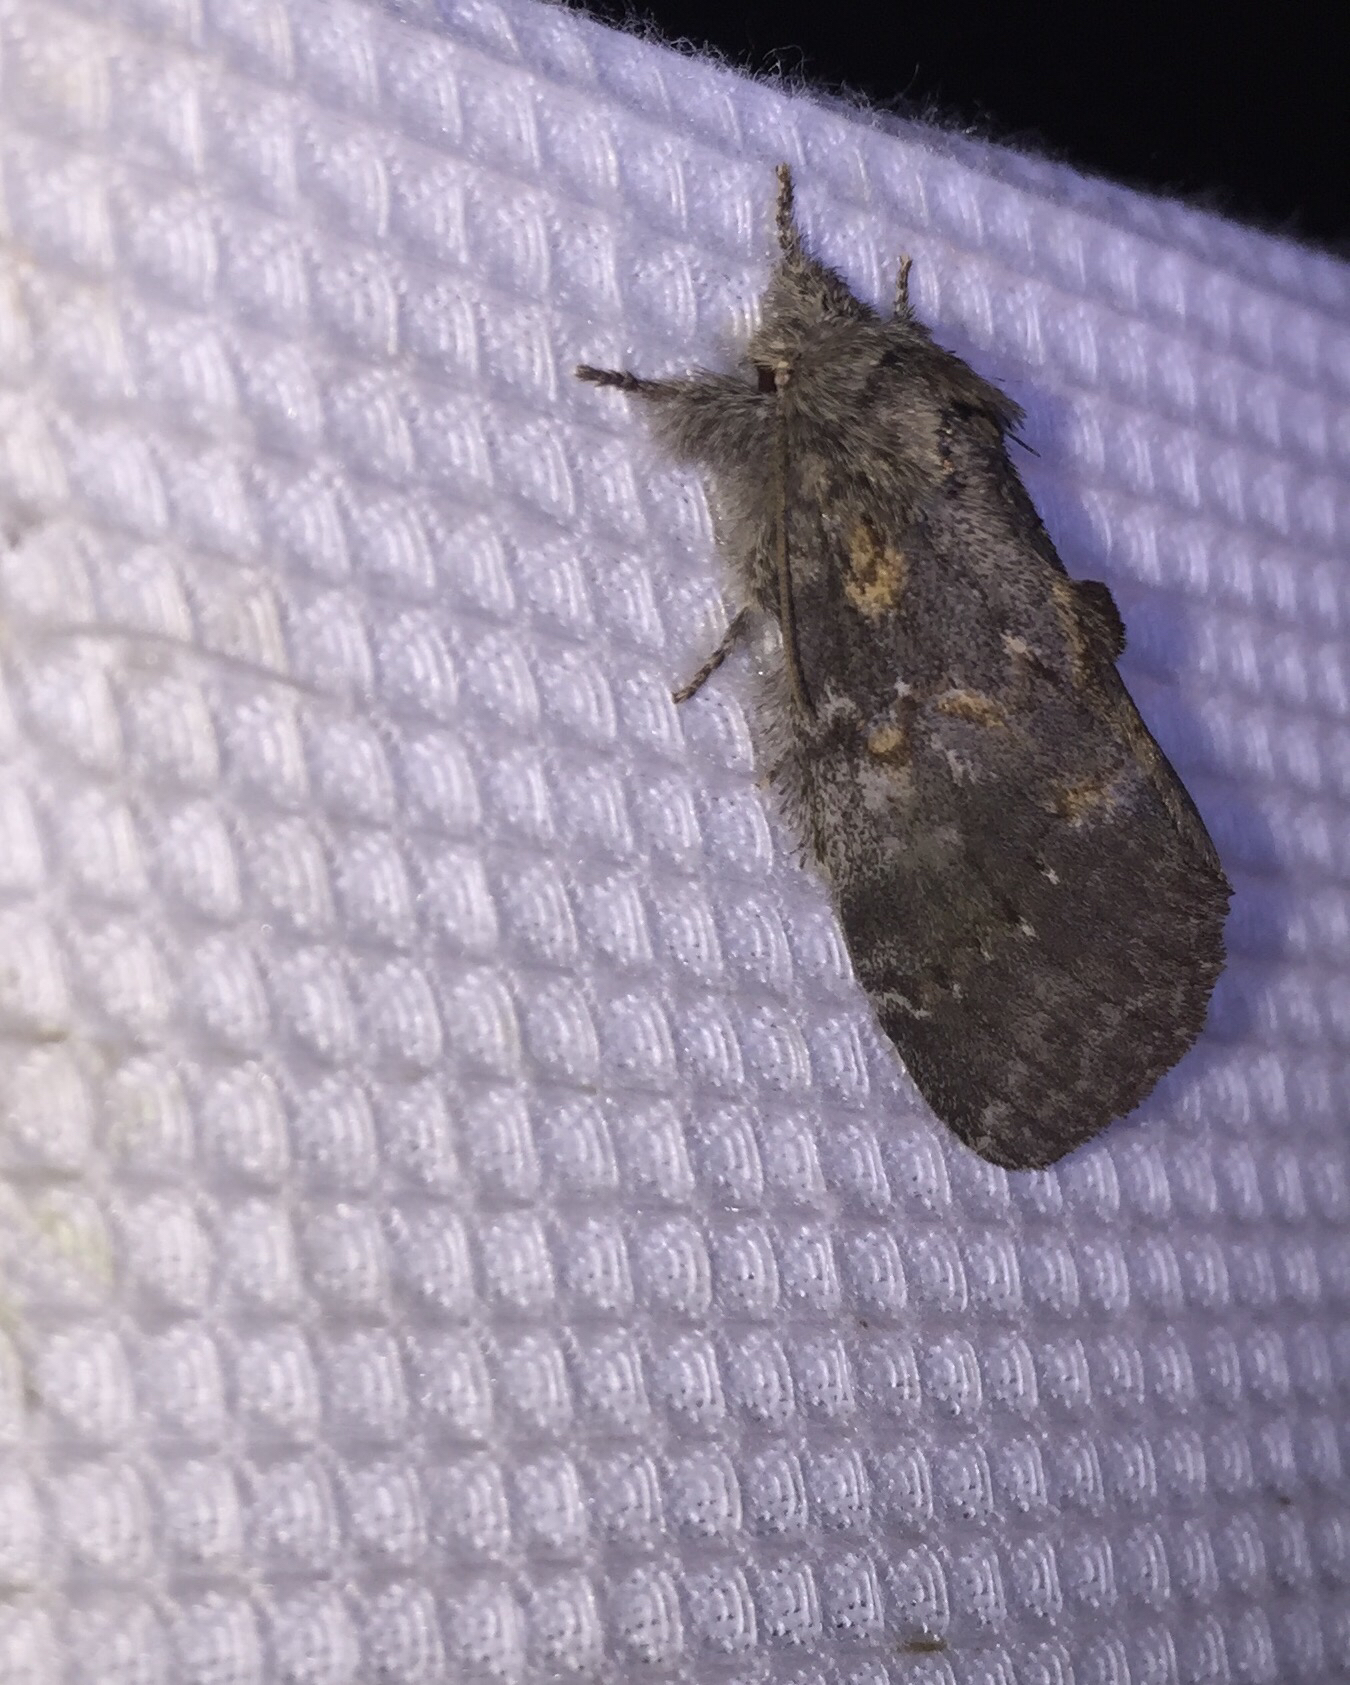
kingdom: Animalia
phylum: Arthropoda
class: Insecta
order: Lepidoptera
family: Notodontidae
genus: Peridea
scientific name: Peridea angulosa
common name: Angulose prominent
